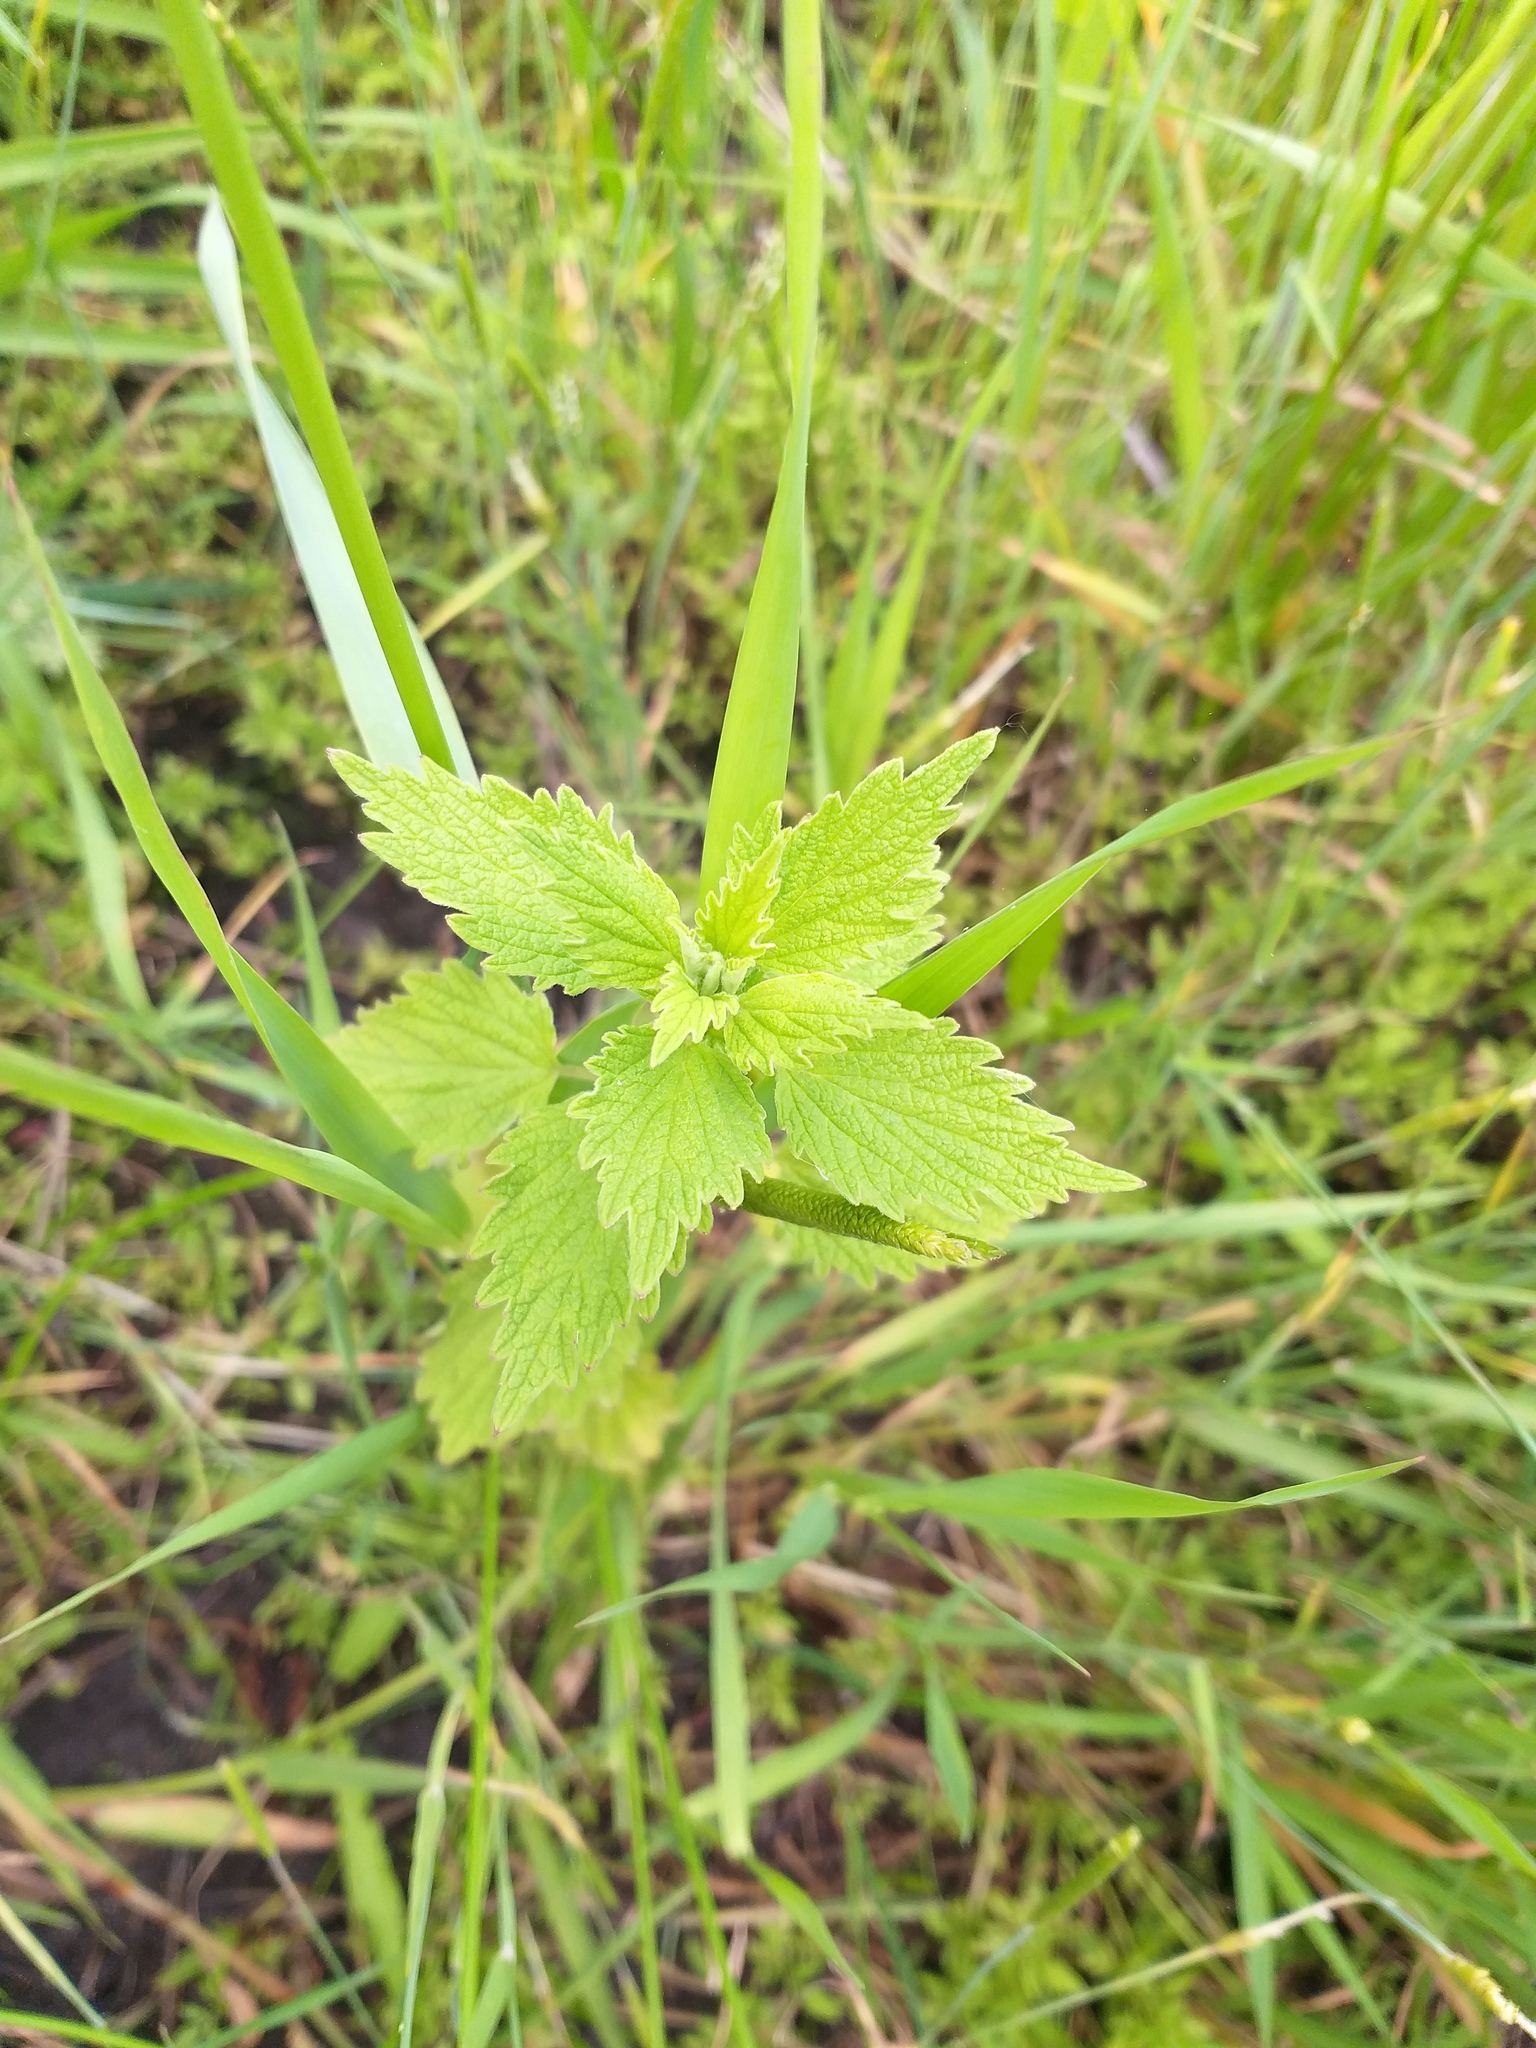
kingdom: Plantae
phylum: Tracheophyta
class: Magnoliopsida
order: Lamiales
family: Lamiaceae
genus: Chaiturus
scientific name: Chaiturus marrubiastrum
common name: Lion's tail
